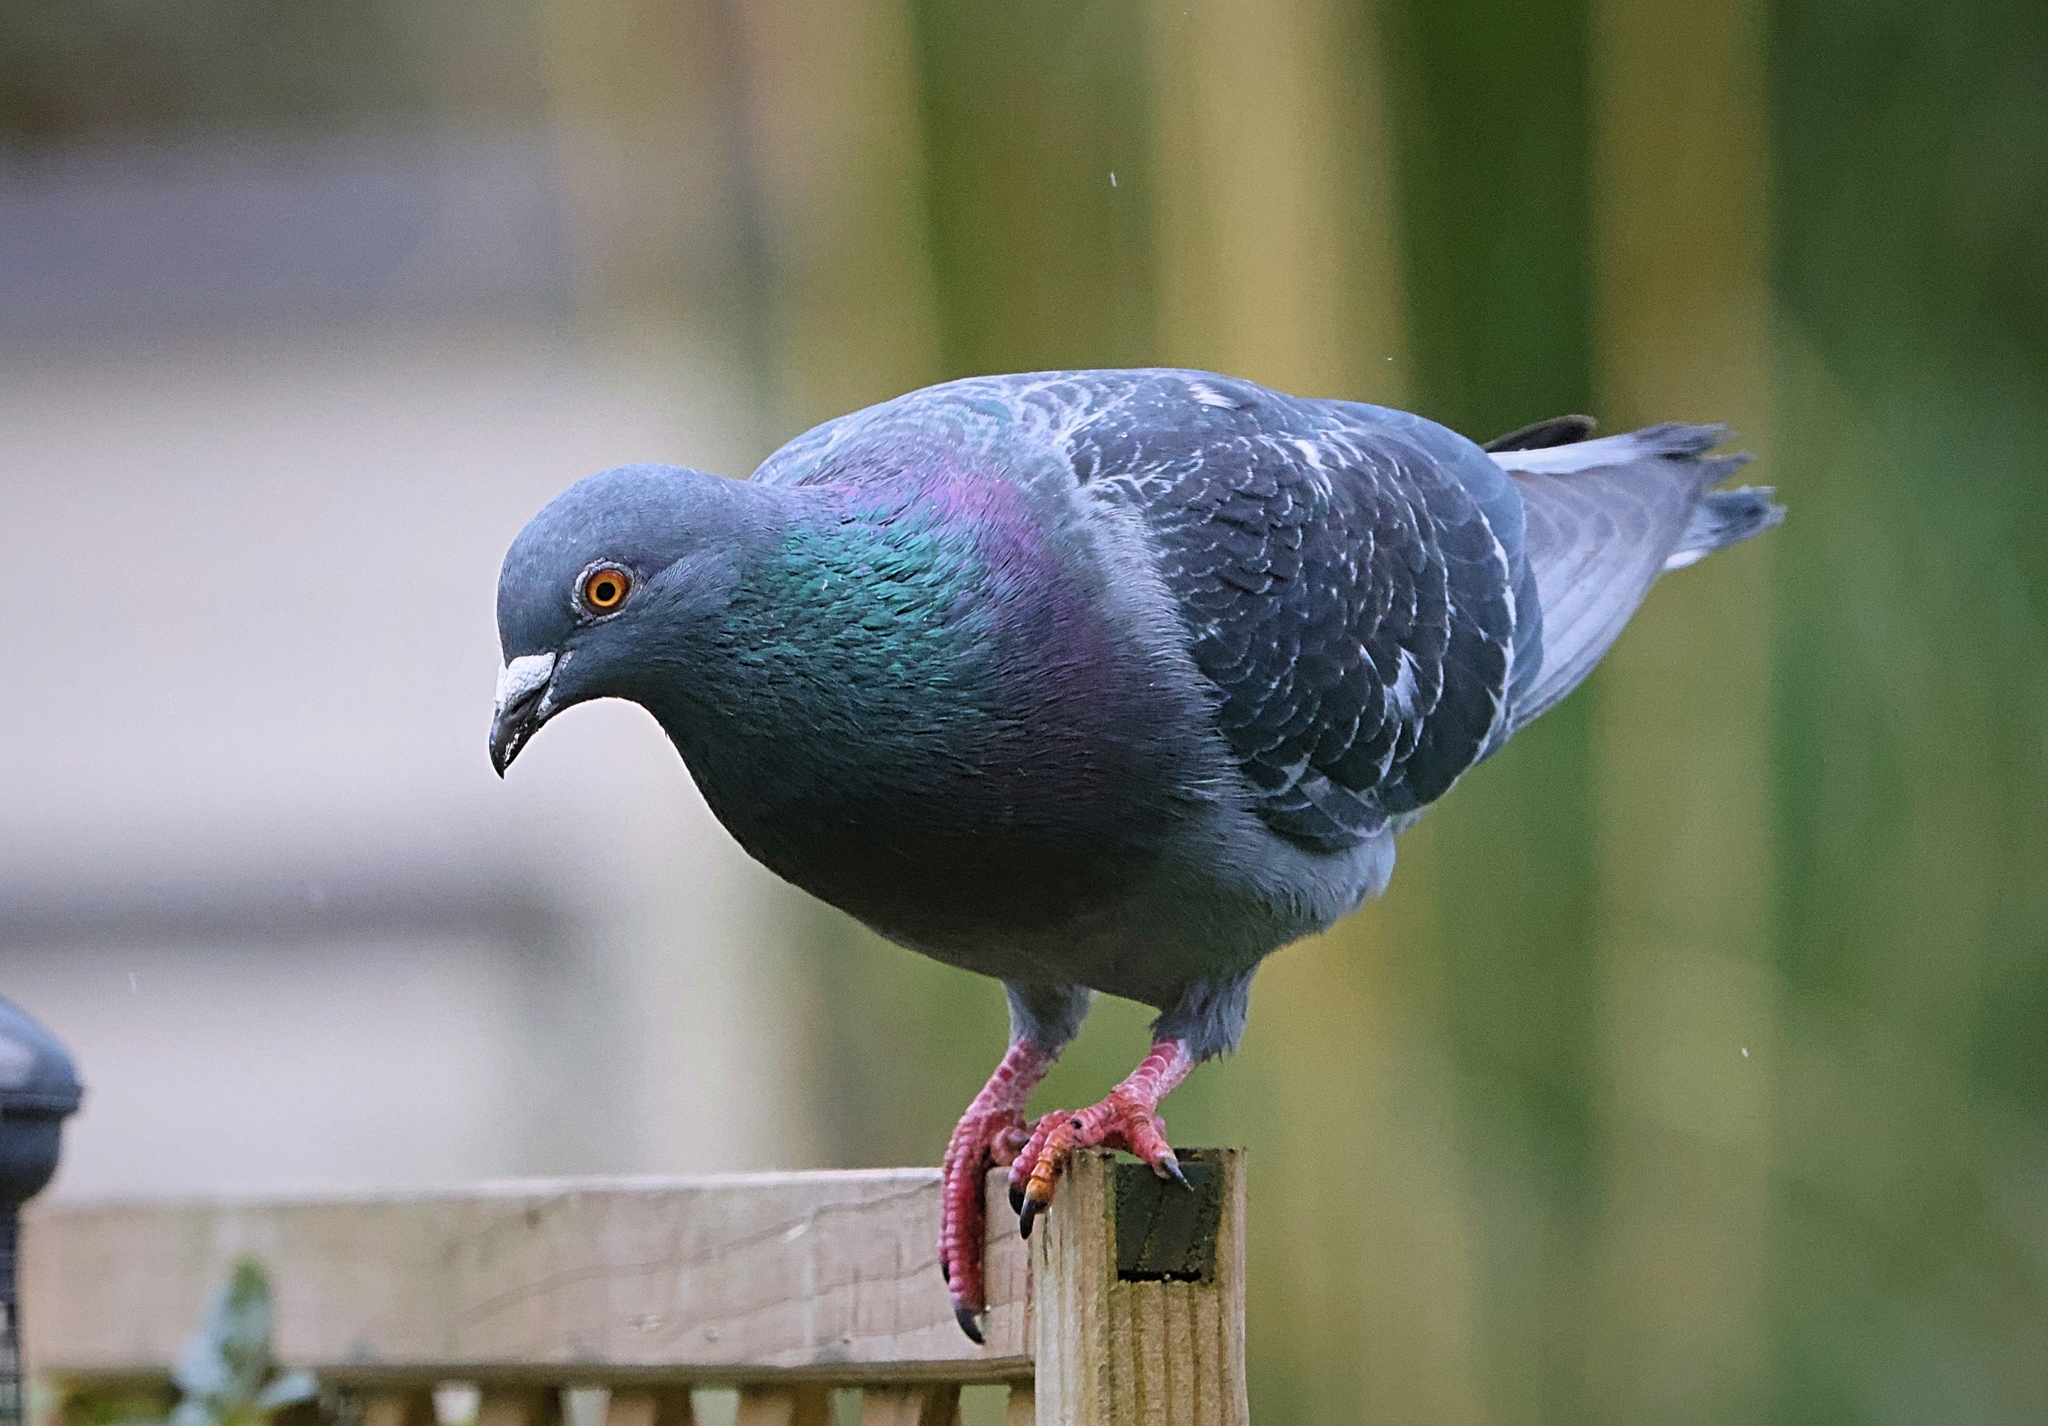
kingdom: Animalia
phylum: Chordata
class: Aves
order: Columbiformes
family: Columbidae
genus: Columba
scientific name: Columba livia
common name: Rock pigeon
